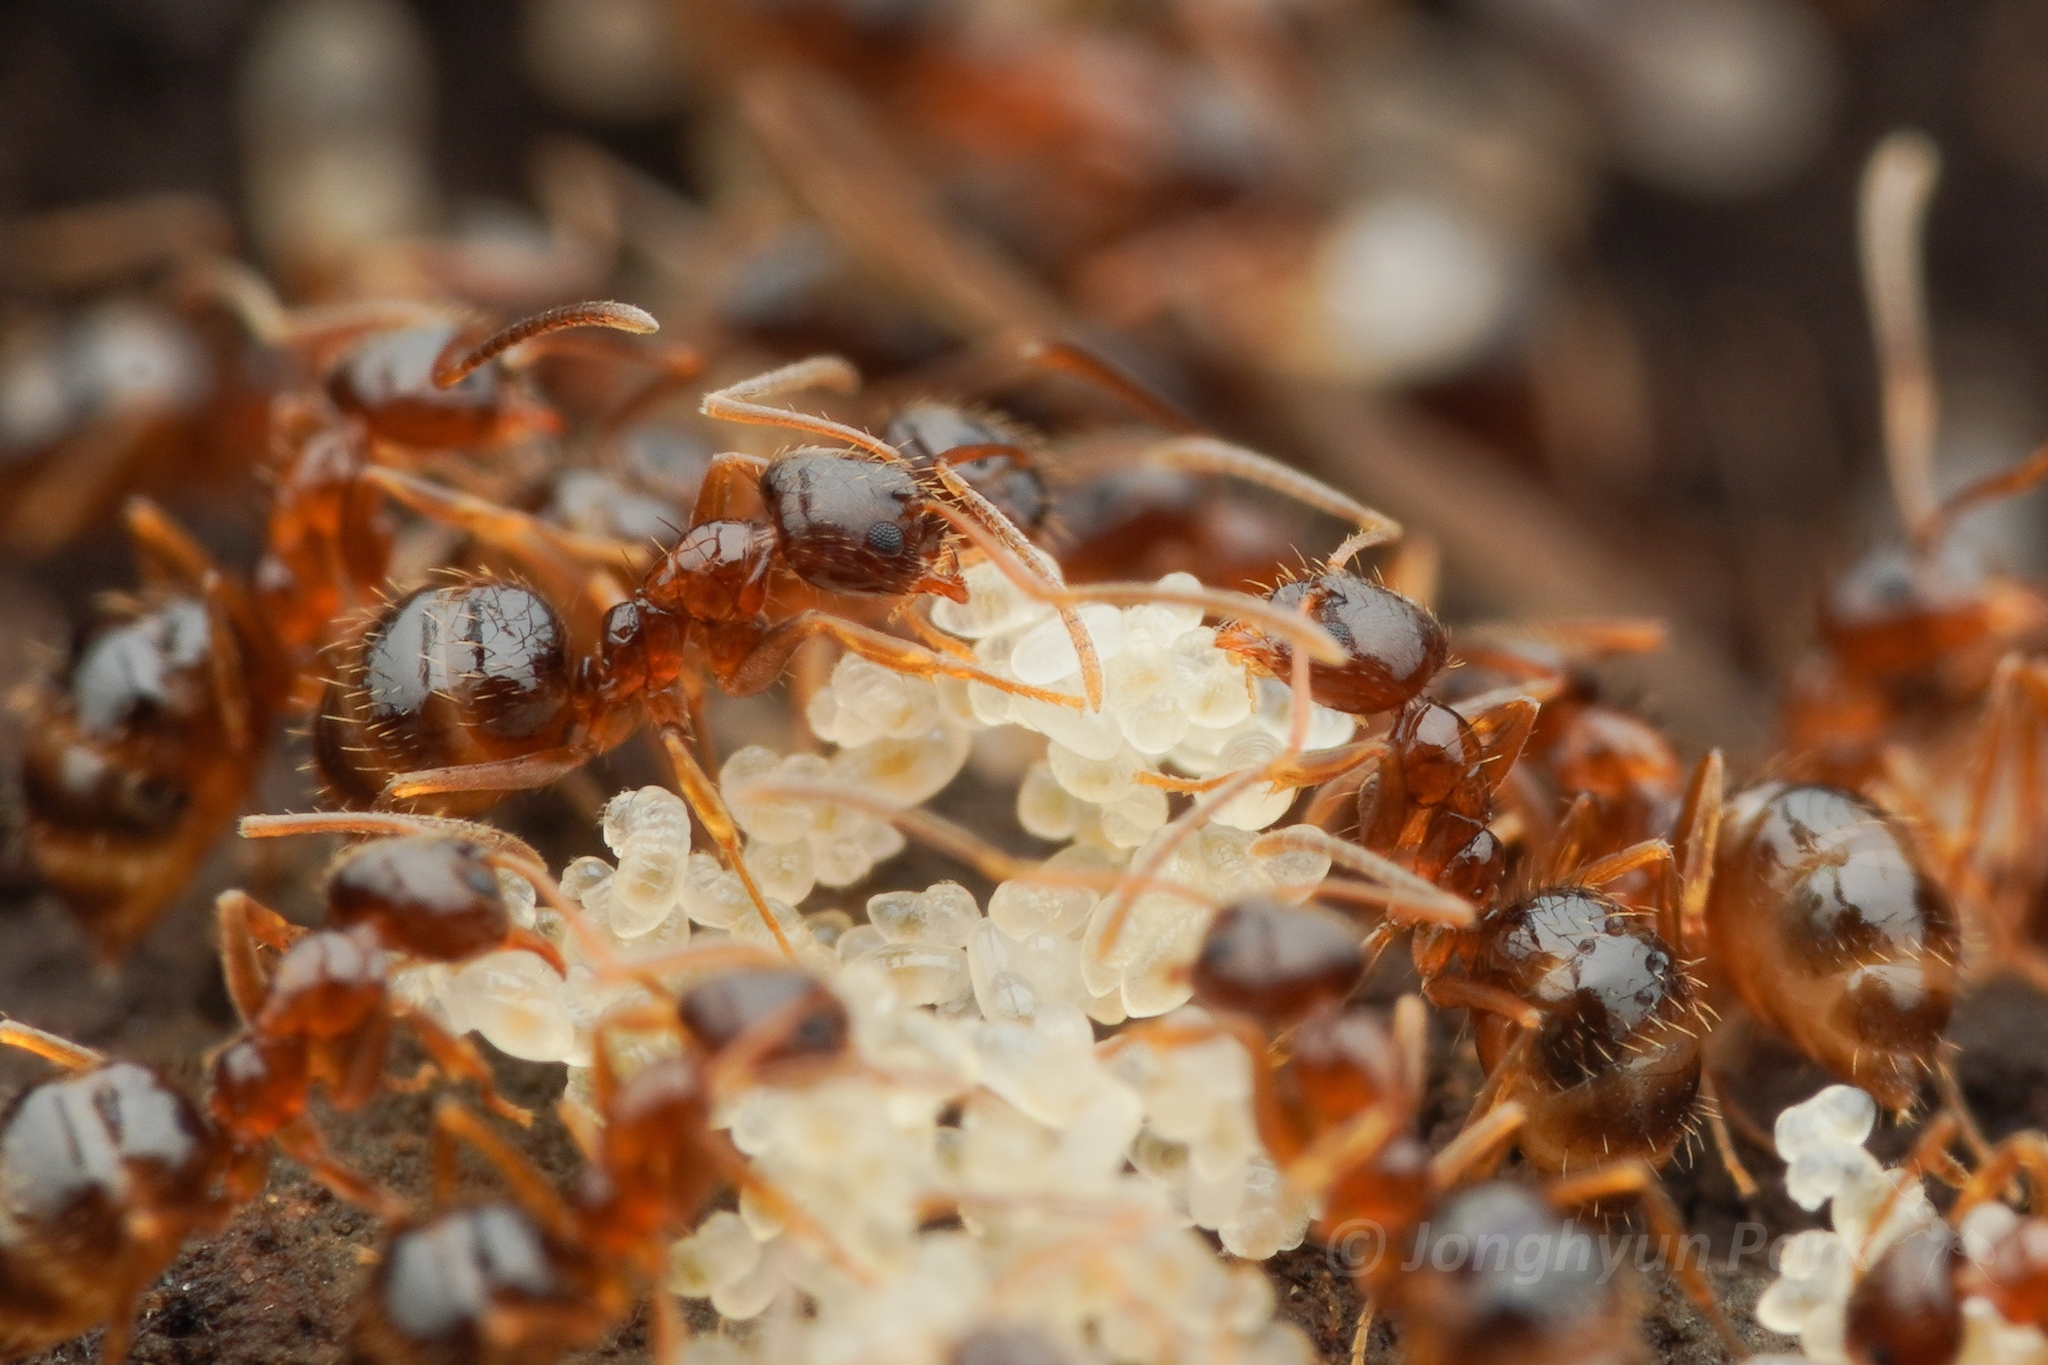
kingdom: Animalia
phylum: Arthropoda
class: Insecta
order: Hymenoptera
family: Formicidae
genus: Paratrechina
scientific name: Paratrechina flavipes
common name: Eastern asian formicine ant
